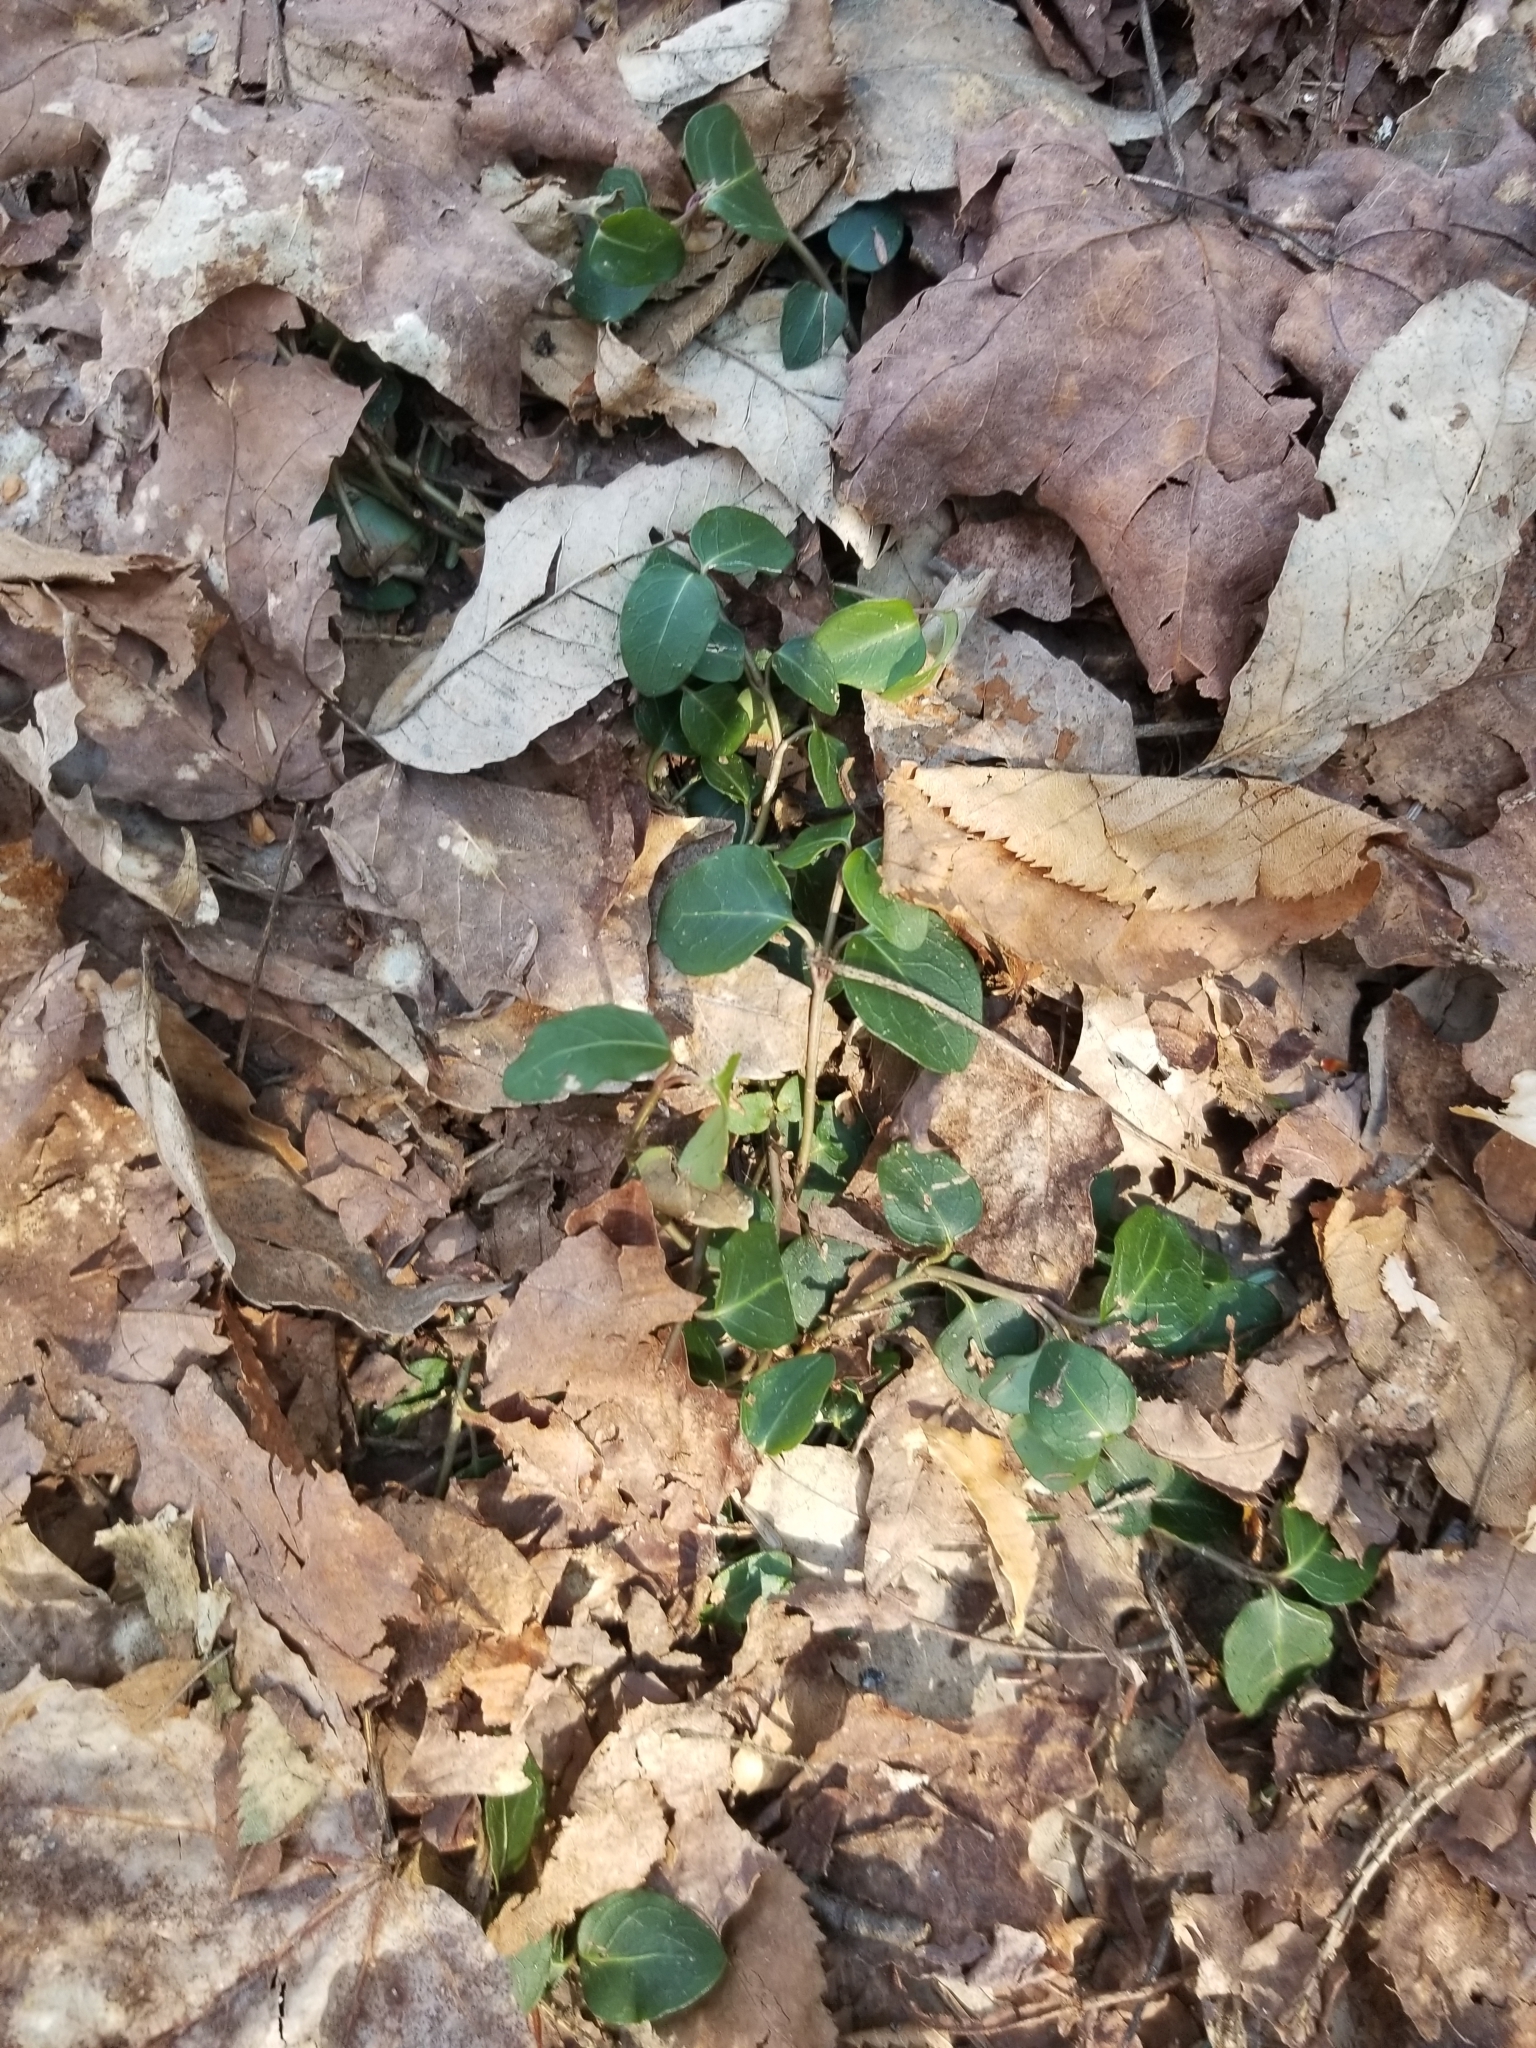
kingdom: Plantae
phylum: Tracheophyta
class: Magnoliopsida
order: Gentianales
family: Rubiaceae
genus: Mitchella
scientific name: Mitchella repens
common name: Partridge-berry
